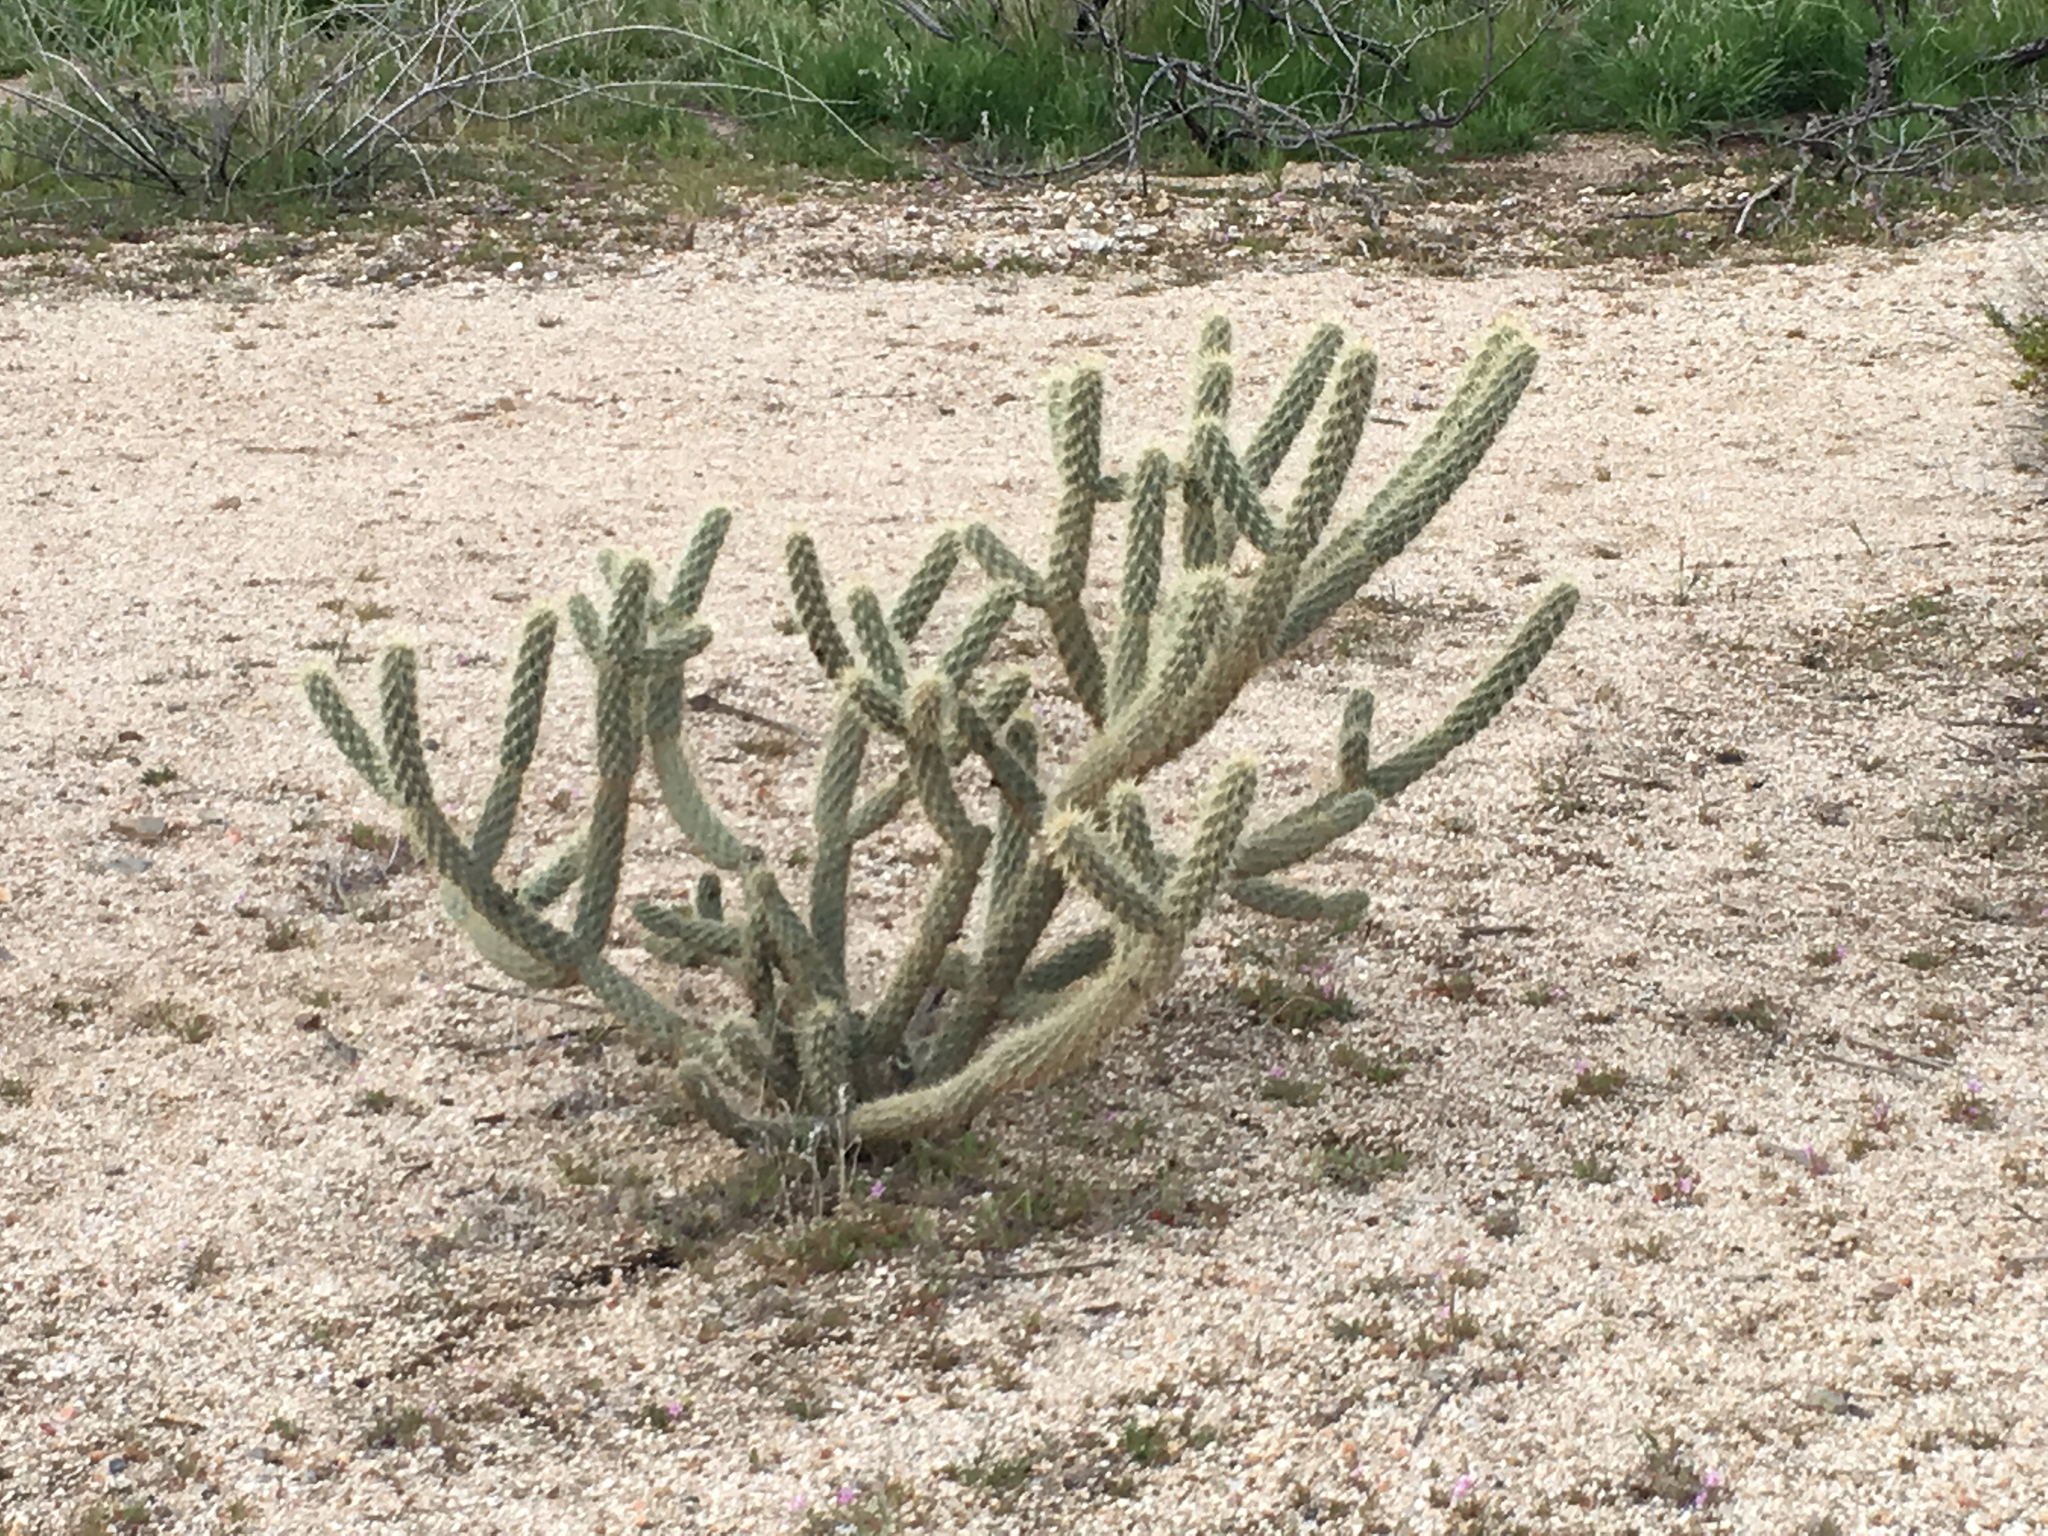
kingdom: Plantae
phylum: Tracheophyta
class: Magnoliopsida
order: Caryophyllales
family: Cactaceae
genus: Cylindropuntia
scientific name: Cylindropuntia ganderi
